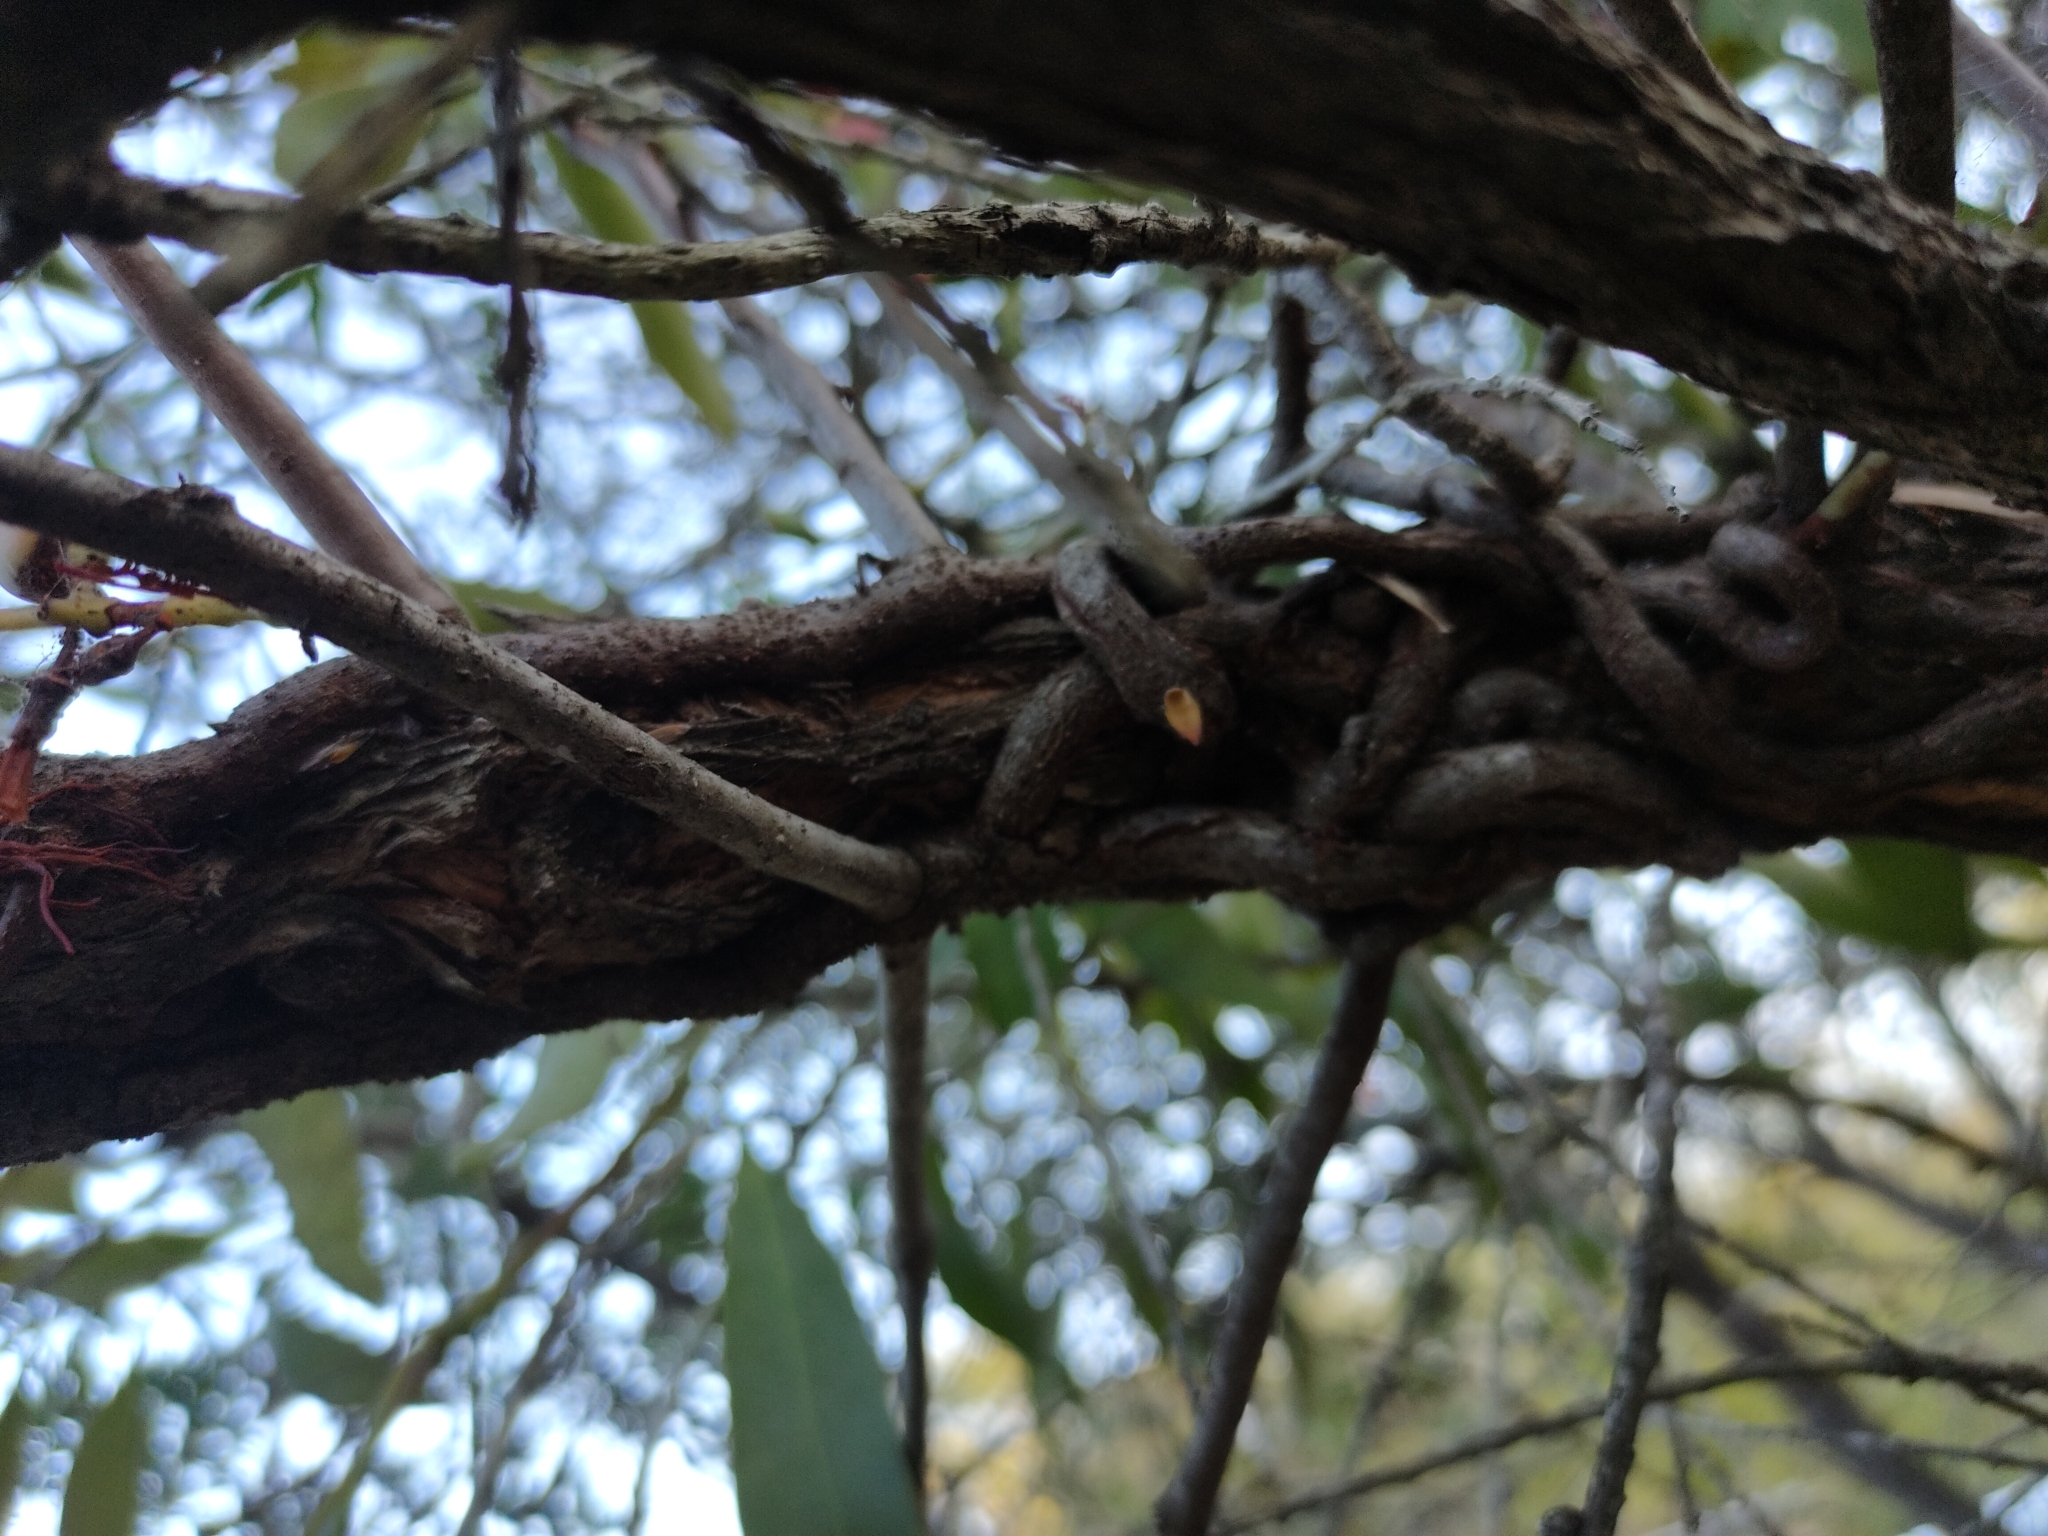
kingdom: Plantae
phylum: Tracheophyta
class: Magnoliopsida
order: Santalales
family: Loranthaceae
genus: Dendrophthoe
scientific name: Dendrophthoe glabrescens
